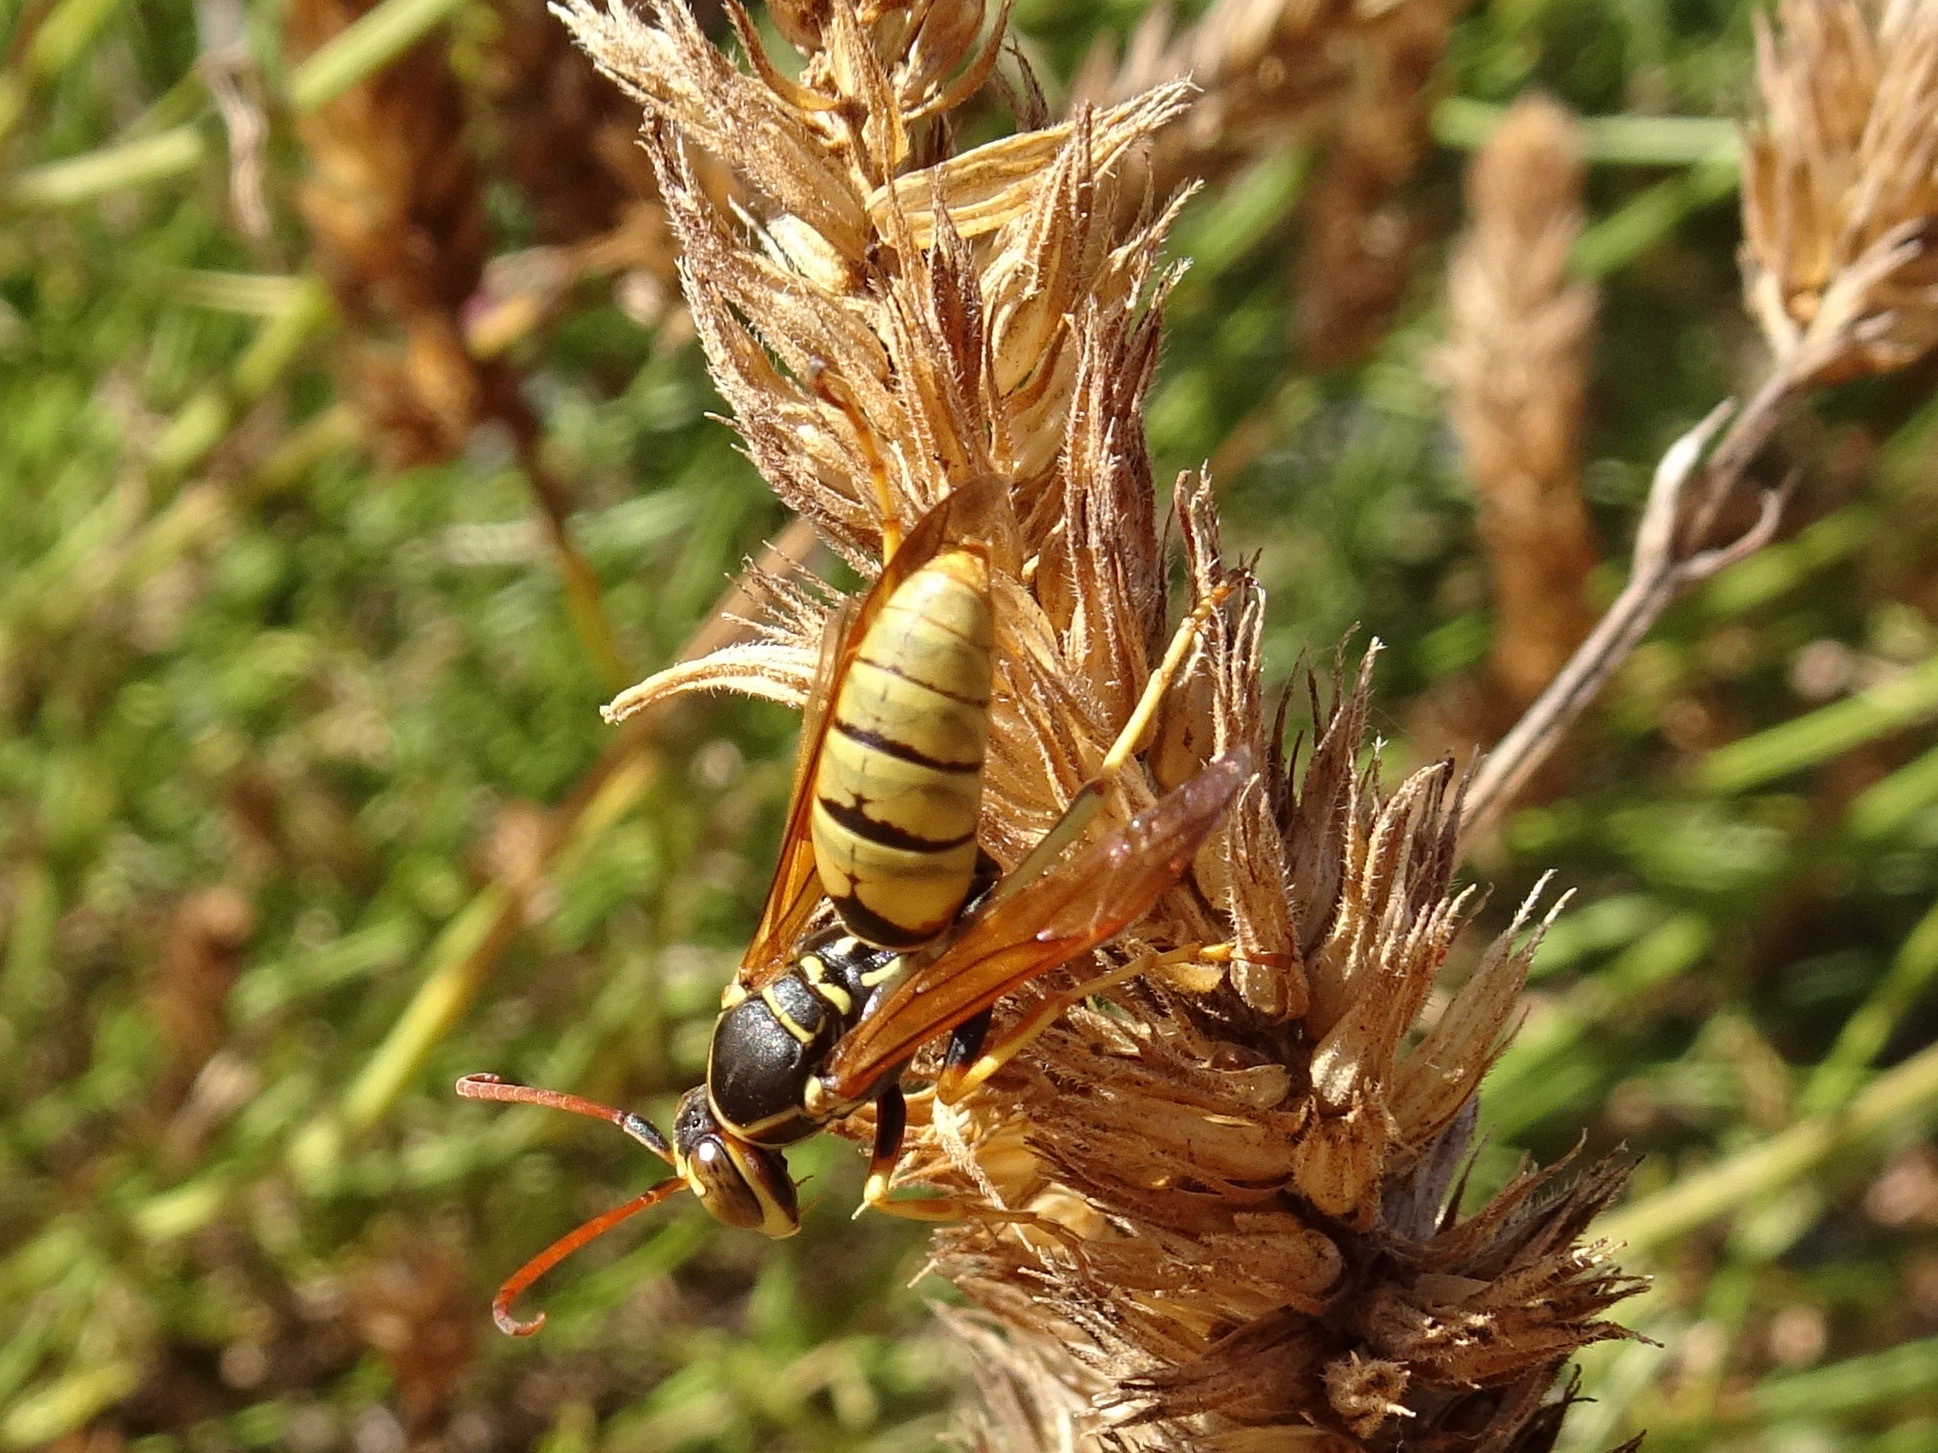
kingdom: Animalia
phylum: Arthropoda
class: Insecta
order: Hymenoptera
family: Eumenidae
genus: Polistes
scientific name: Polistes aurifer
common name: Paper wasp
